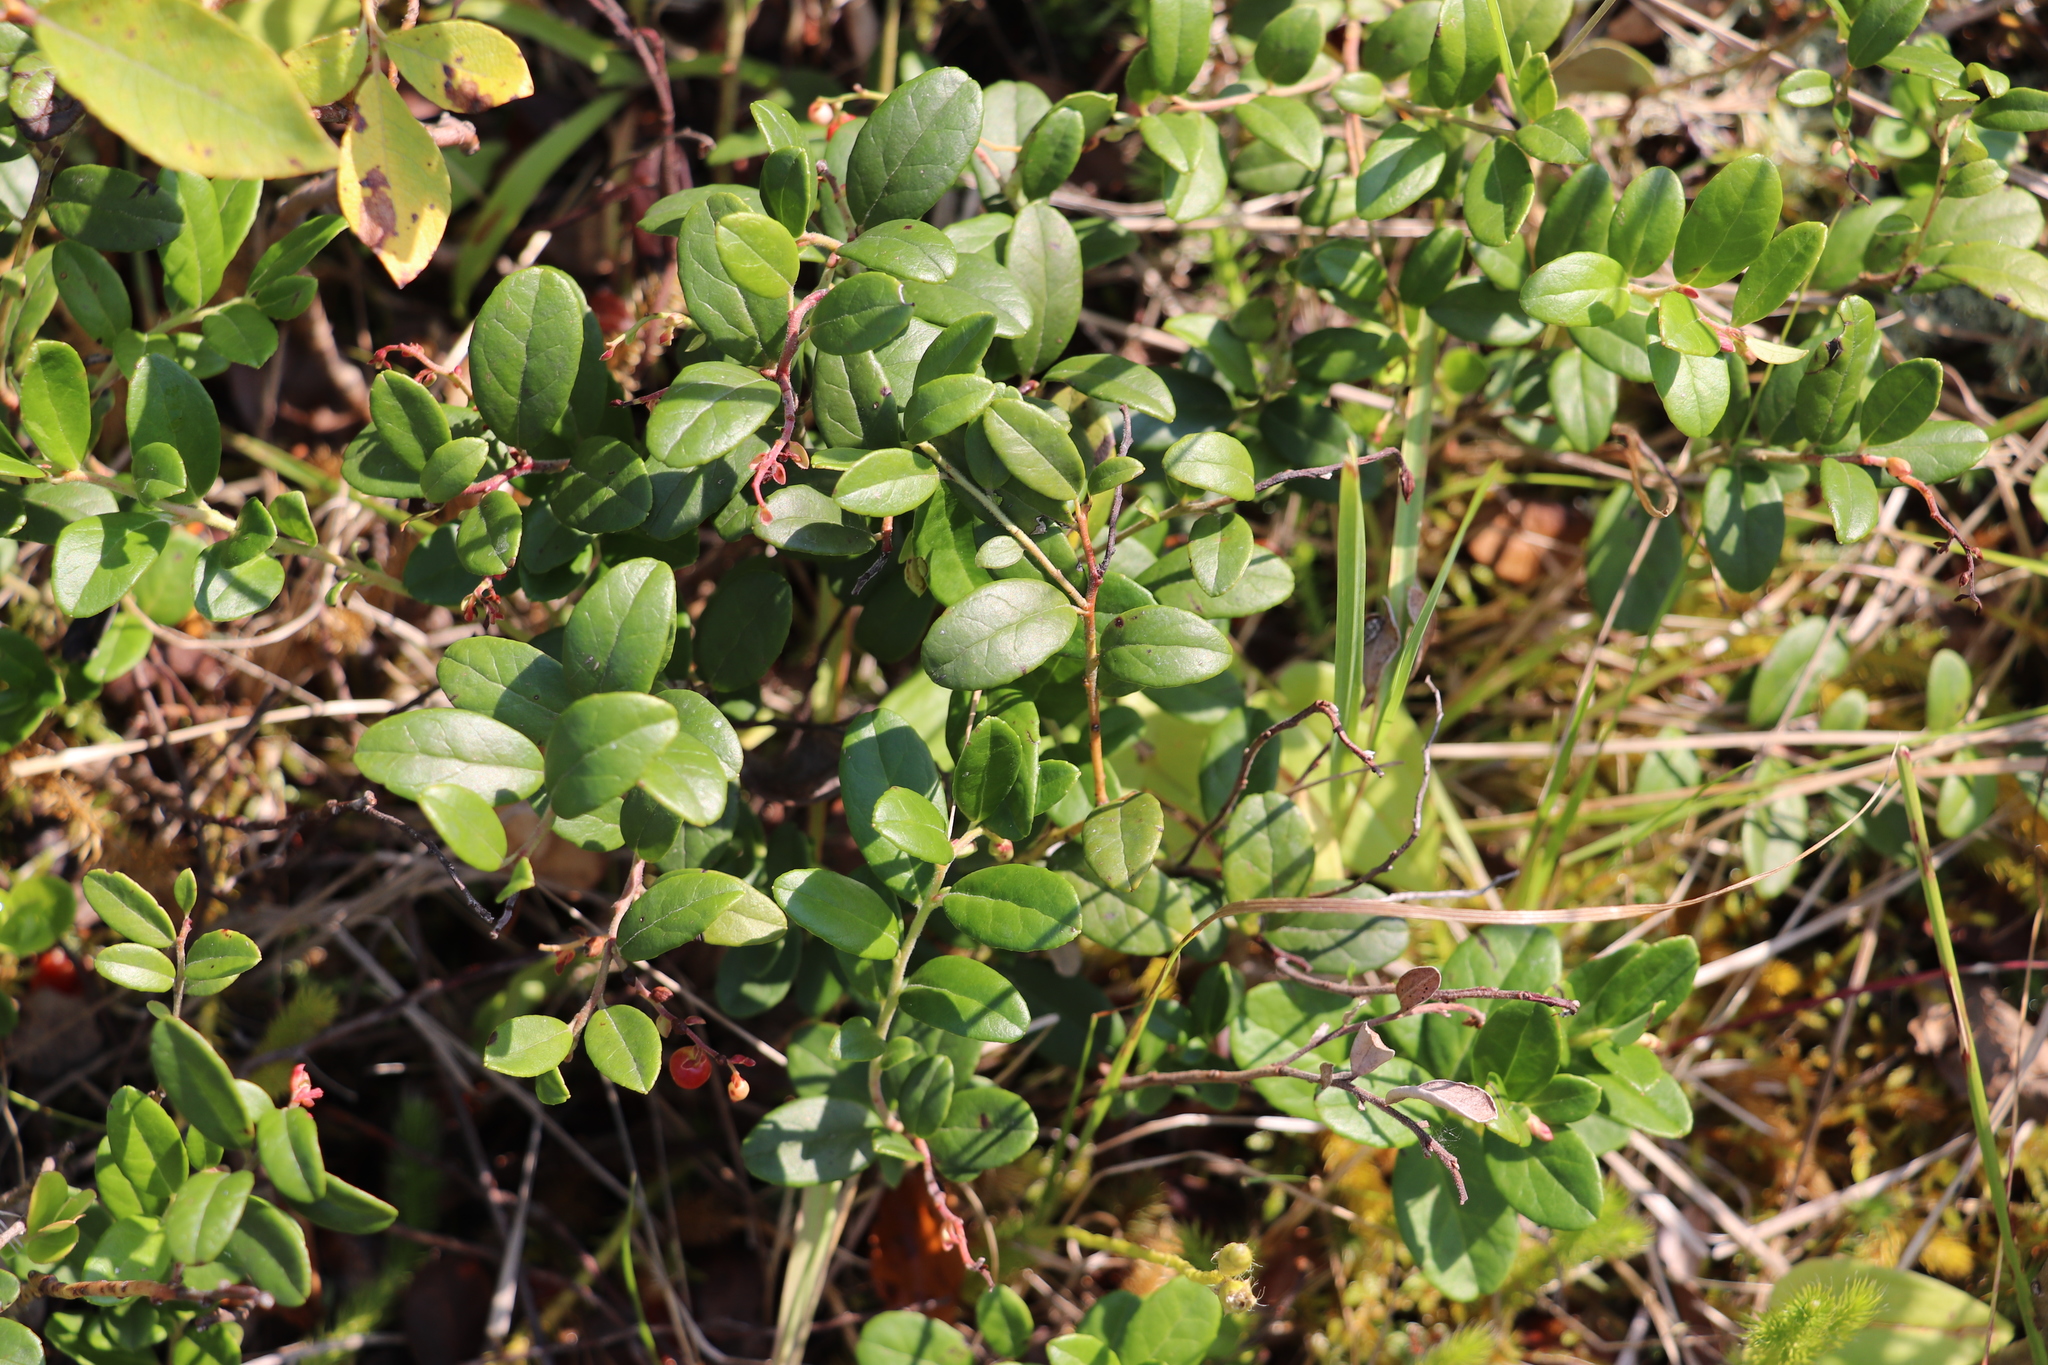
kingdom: Plantae
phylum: Tracheophyta
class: Magnoliopsida
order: Ericales
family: Ericaceae
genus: Vaccinium
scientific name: Vaccinium vitis-idaea
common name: Cowberry
